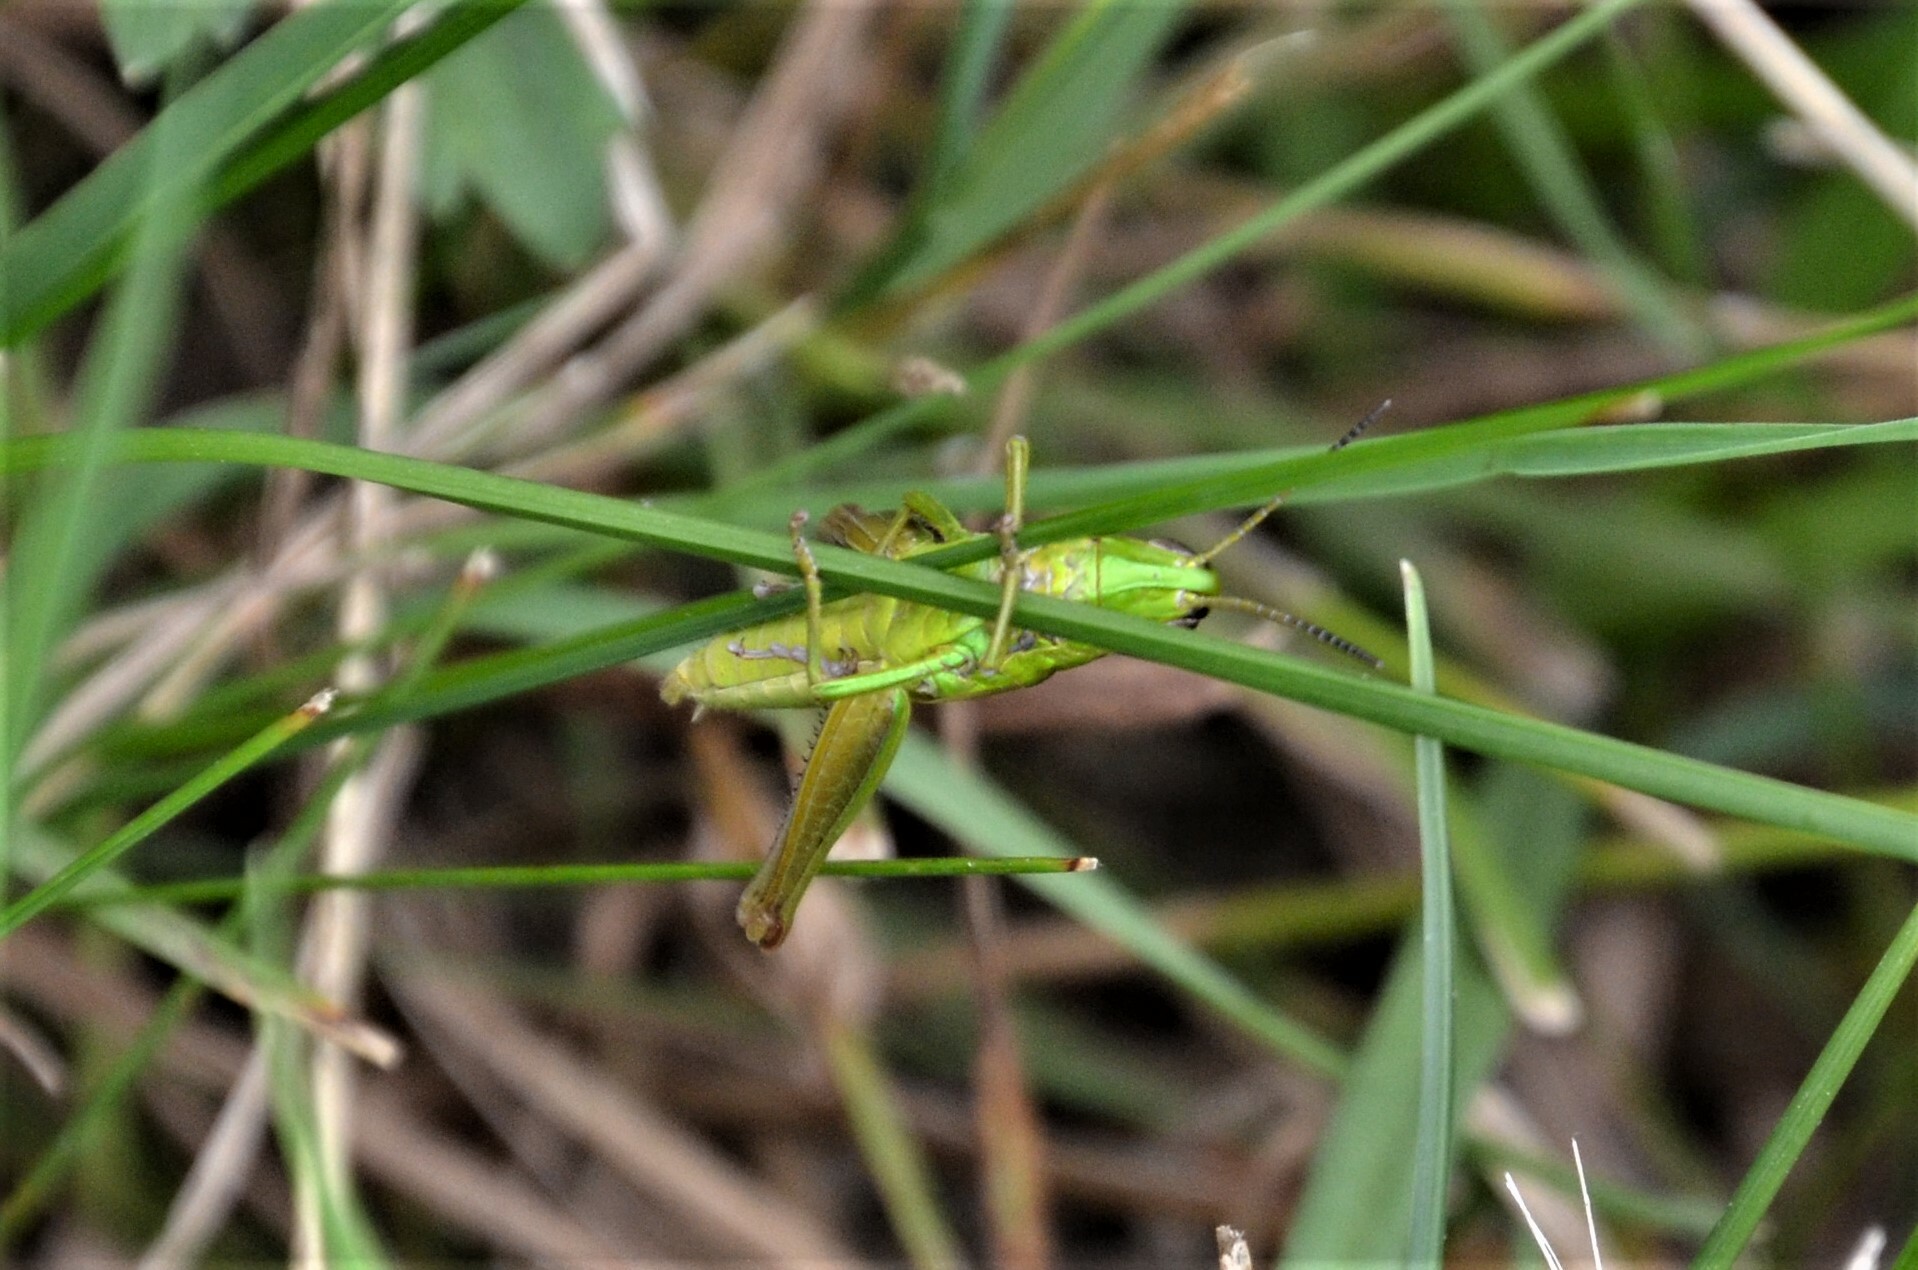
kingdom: Animalia
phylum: Arthropoda
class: Insecta
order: Orthoptera
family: Acrididae
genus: Euthystira
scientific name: Euthystira brachyptera
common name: Small gold grasshopper
